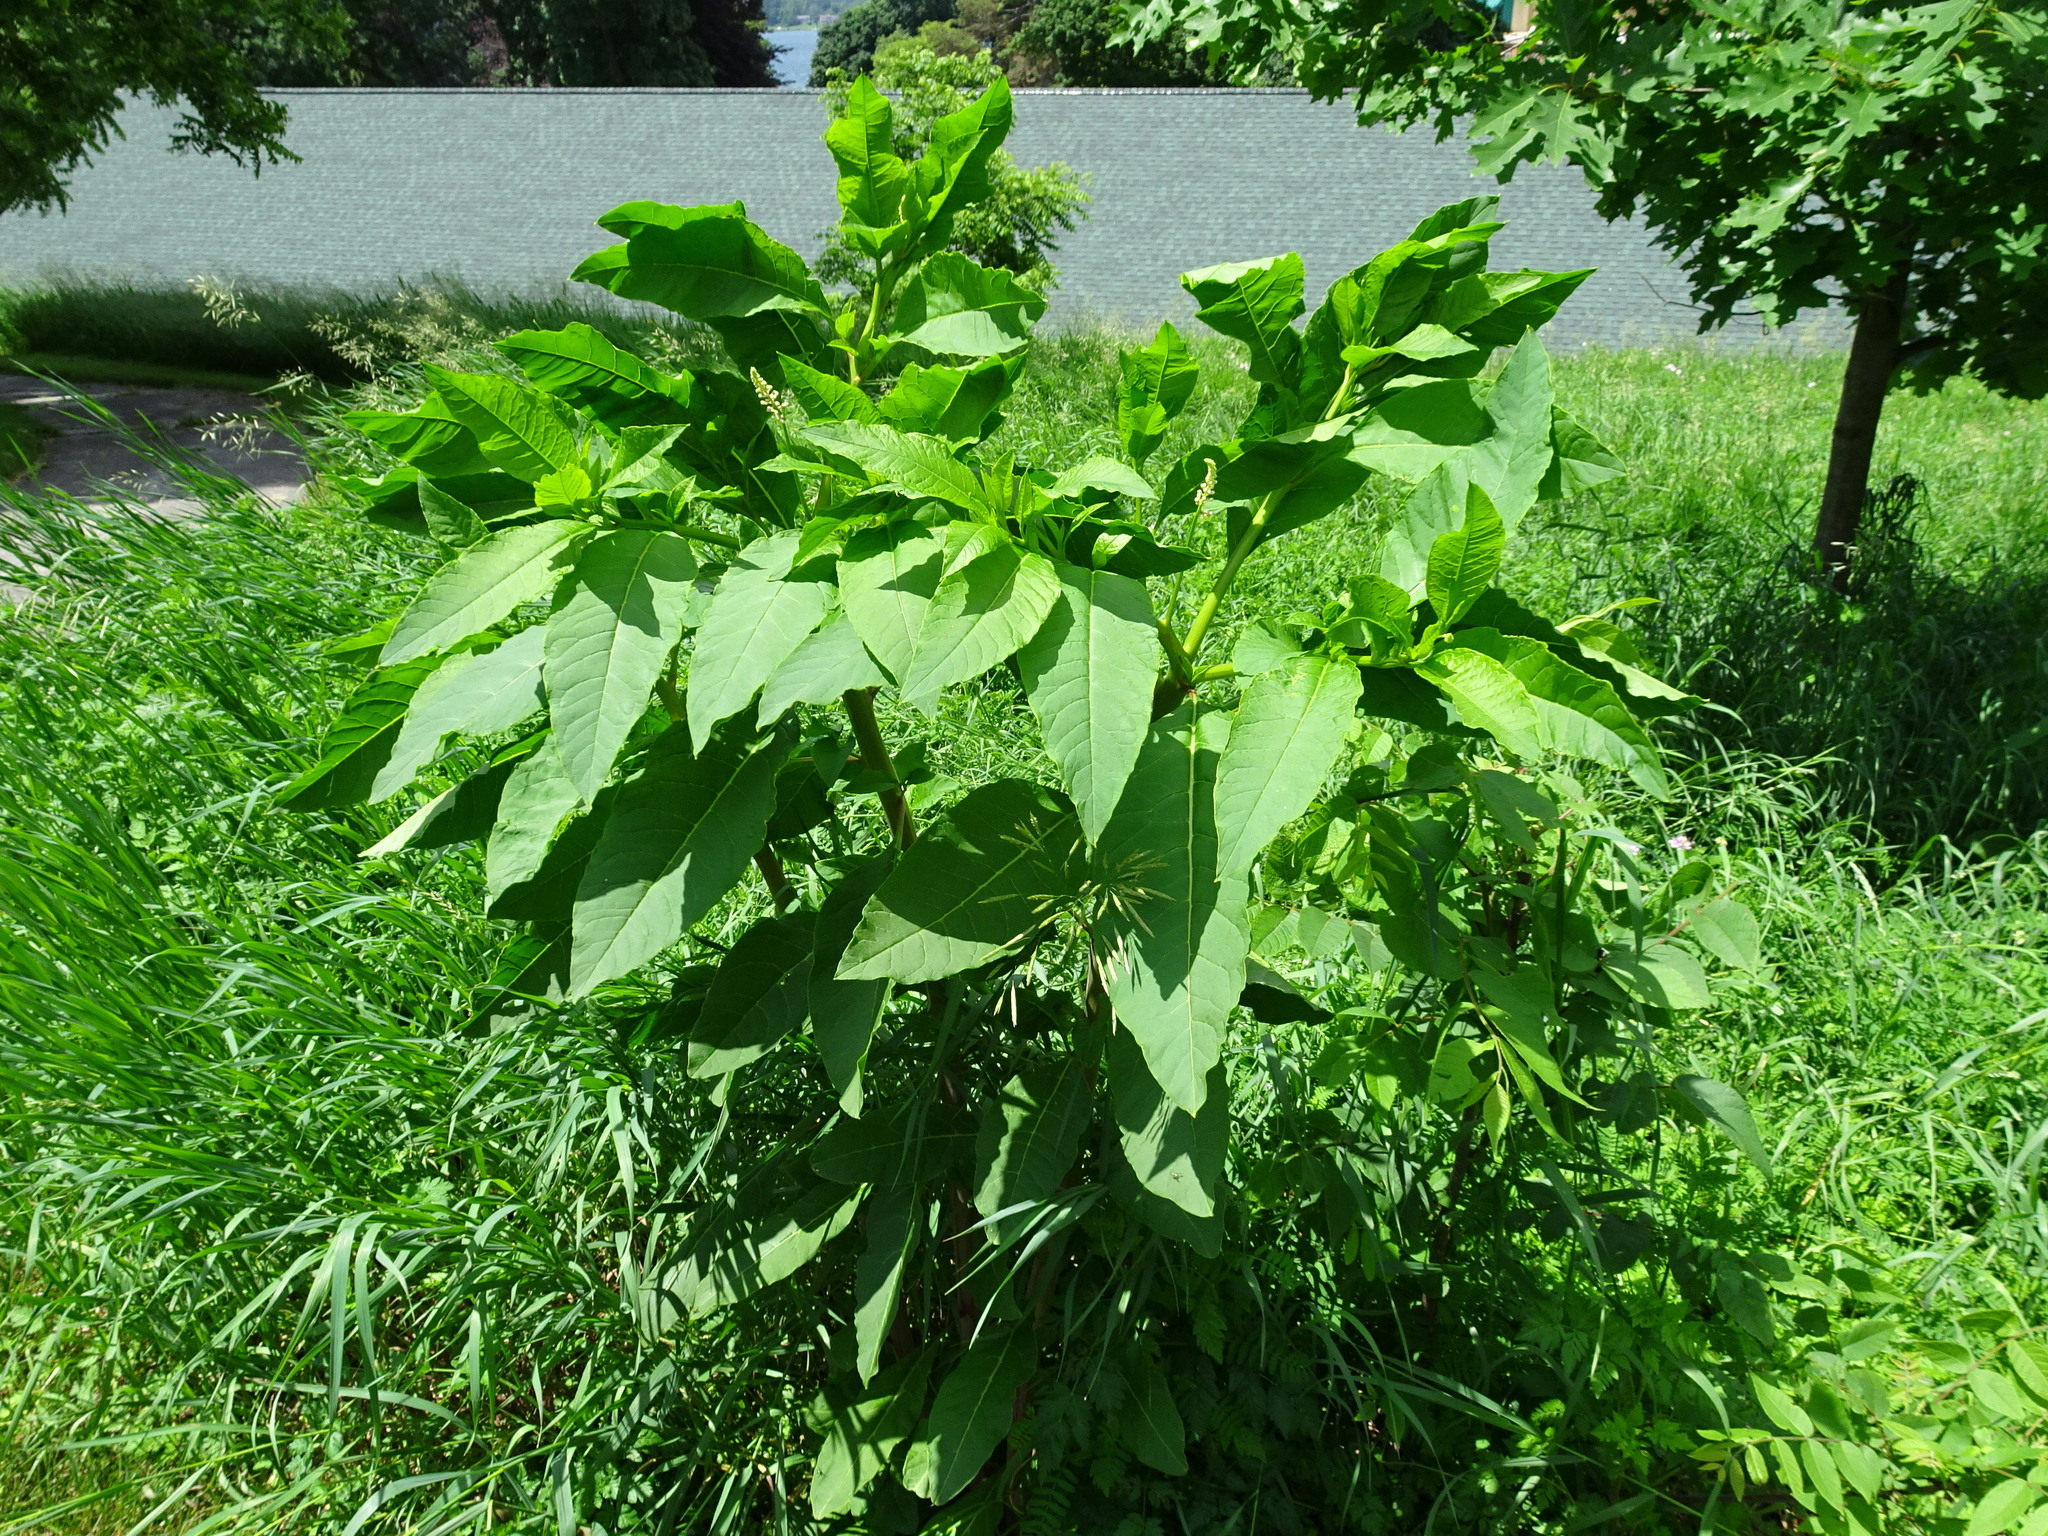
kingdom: Plantae
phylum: Tracheophyta
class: Magnoliopsida
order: Caryophyllales
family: Phytolaccaceae
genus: Phytolacca
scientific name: Phytolacca americana
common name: American pokeweed
